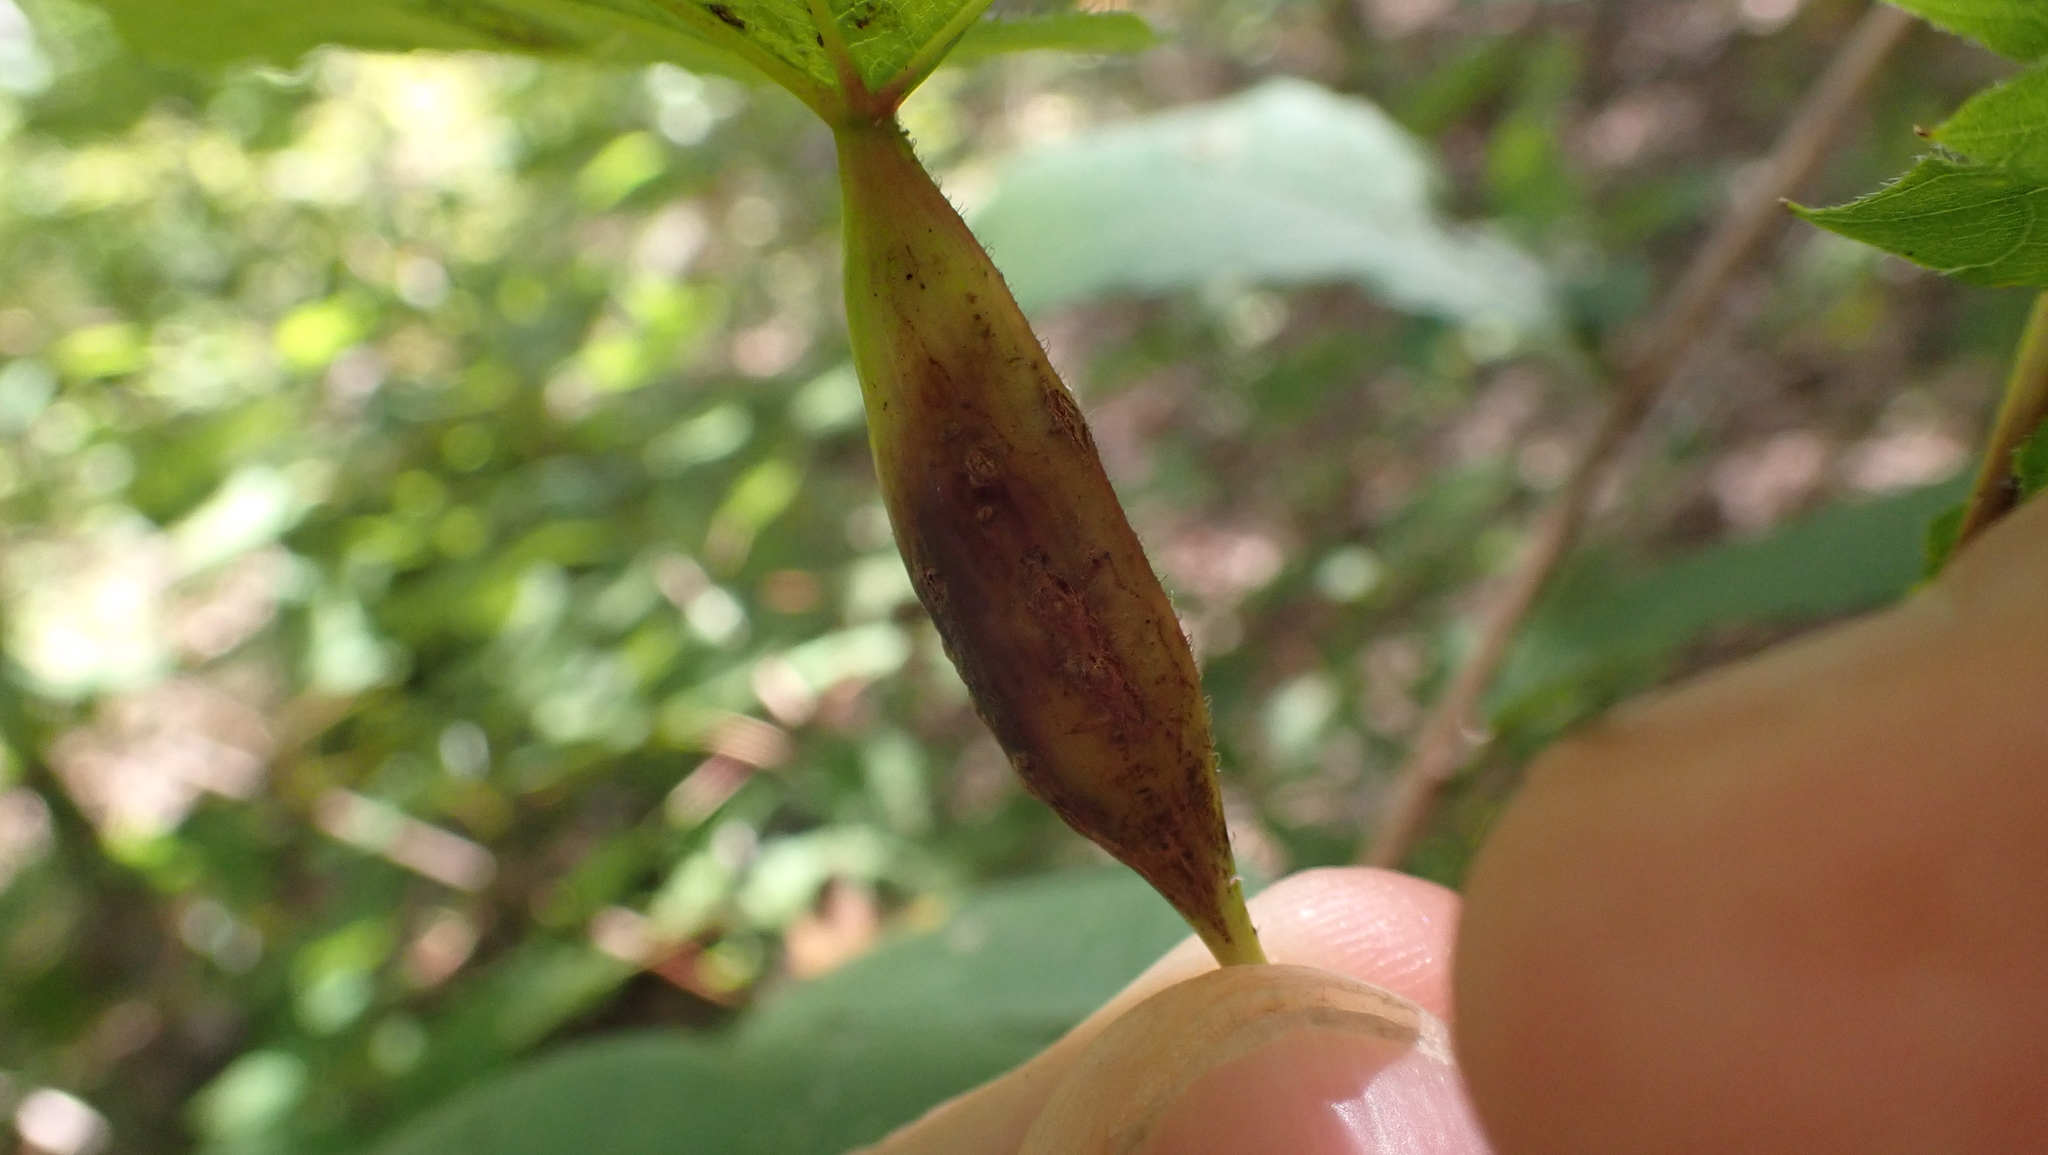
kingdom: Animalia
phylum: Arthropoda
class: Insecta
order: Diptera
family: Cecidomyiidae
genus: Neolasioptera
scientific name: Neolasioptera vitinea
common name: Grape leaf petiole gall
